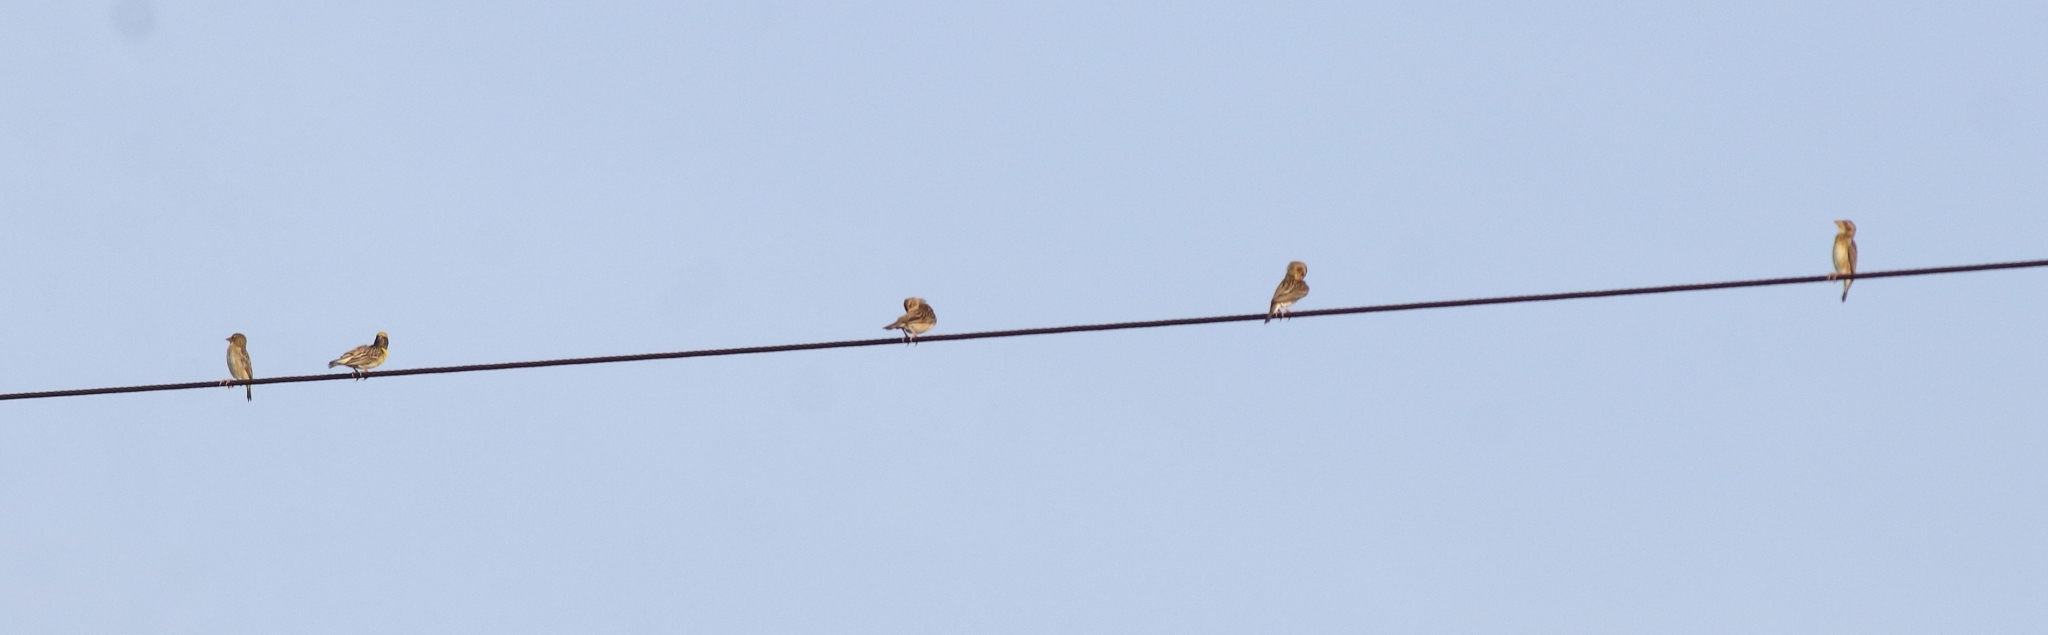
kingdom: Animalia
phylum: Chordata
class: Aves
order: Passeriformes
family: Ploceidae
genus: Ploceus
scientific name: Ploceus philippinus
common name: Baya weaver
